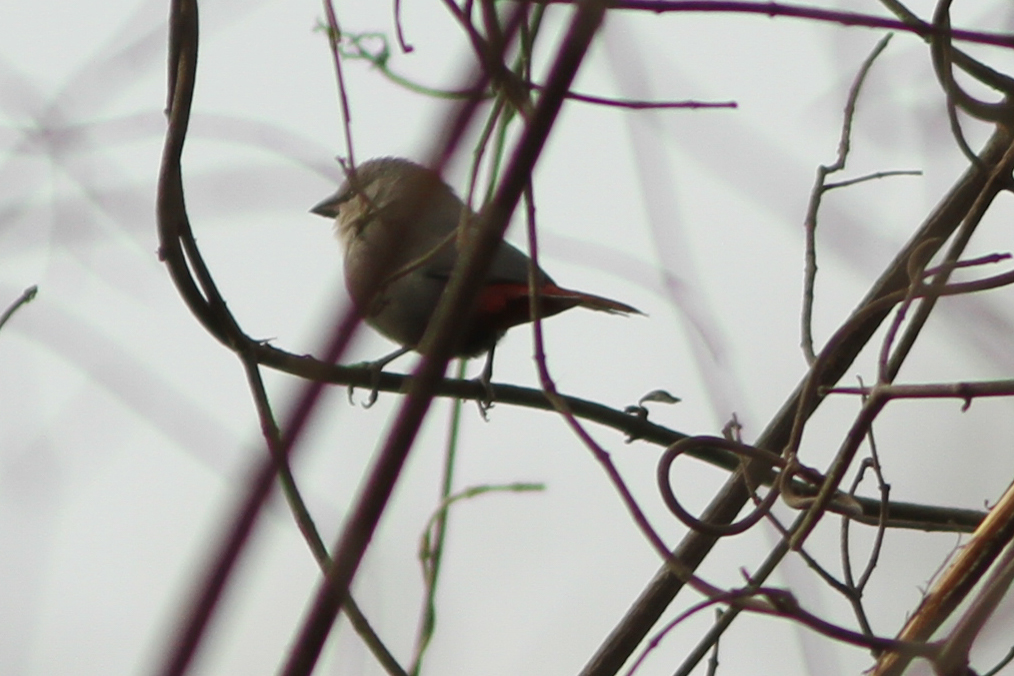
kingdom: Animalia
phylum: Chordata
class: Aves
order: Passeriformes
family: Estrildidae
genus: Estrilda
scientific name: Estrilda caerulescens
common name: Lavender waxbill
